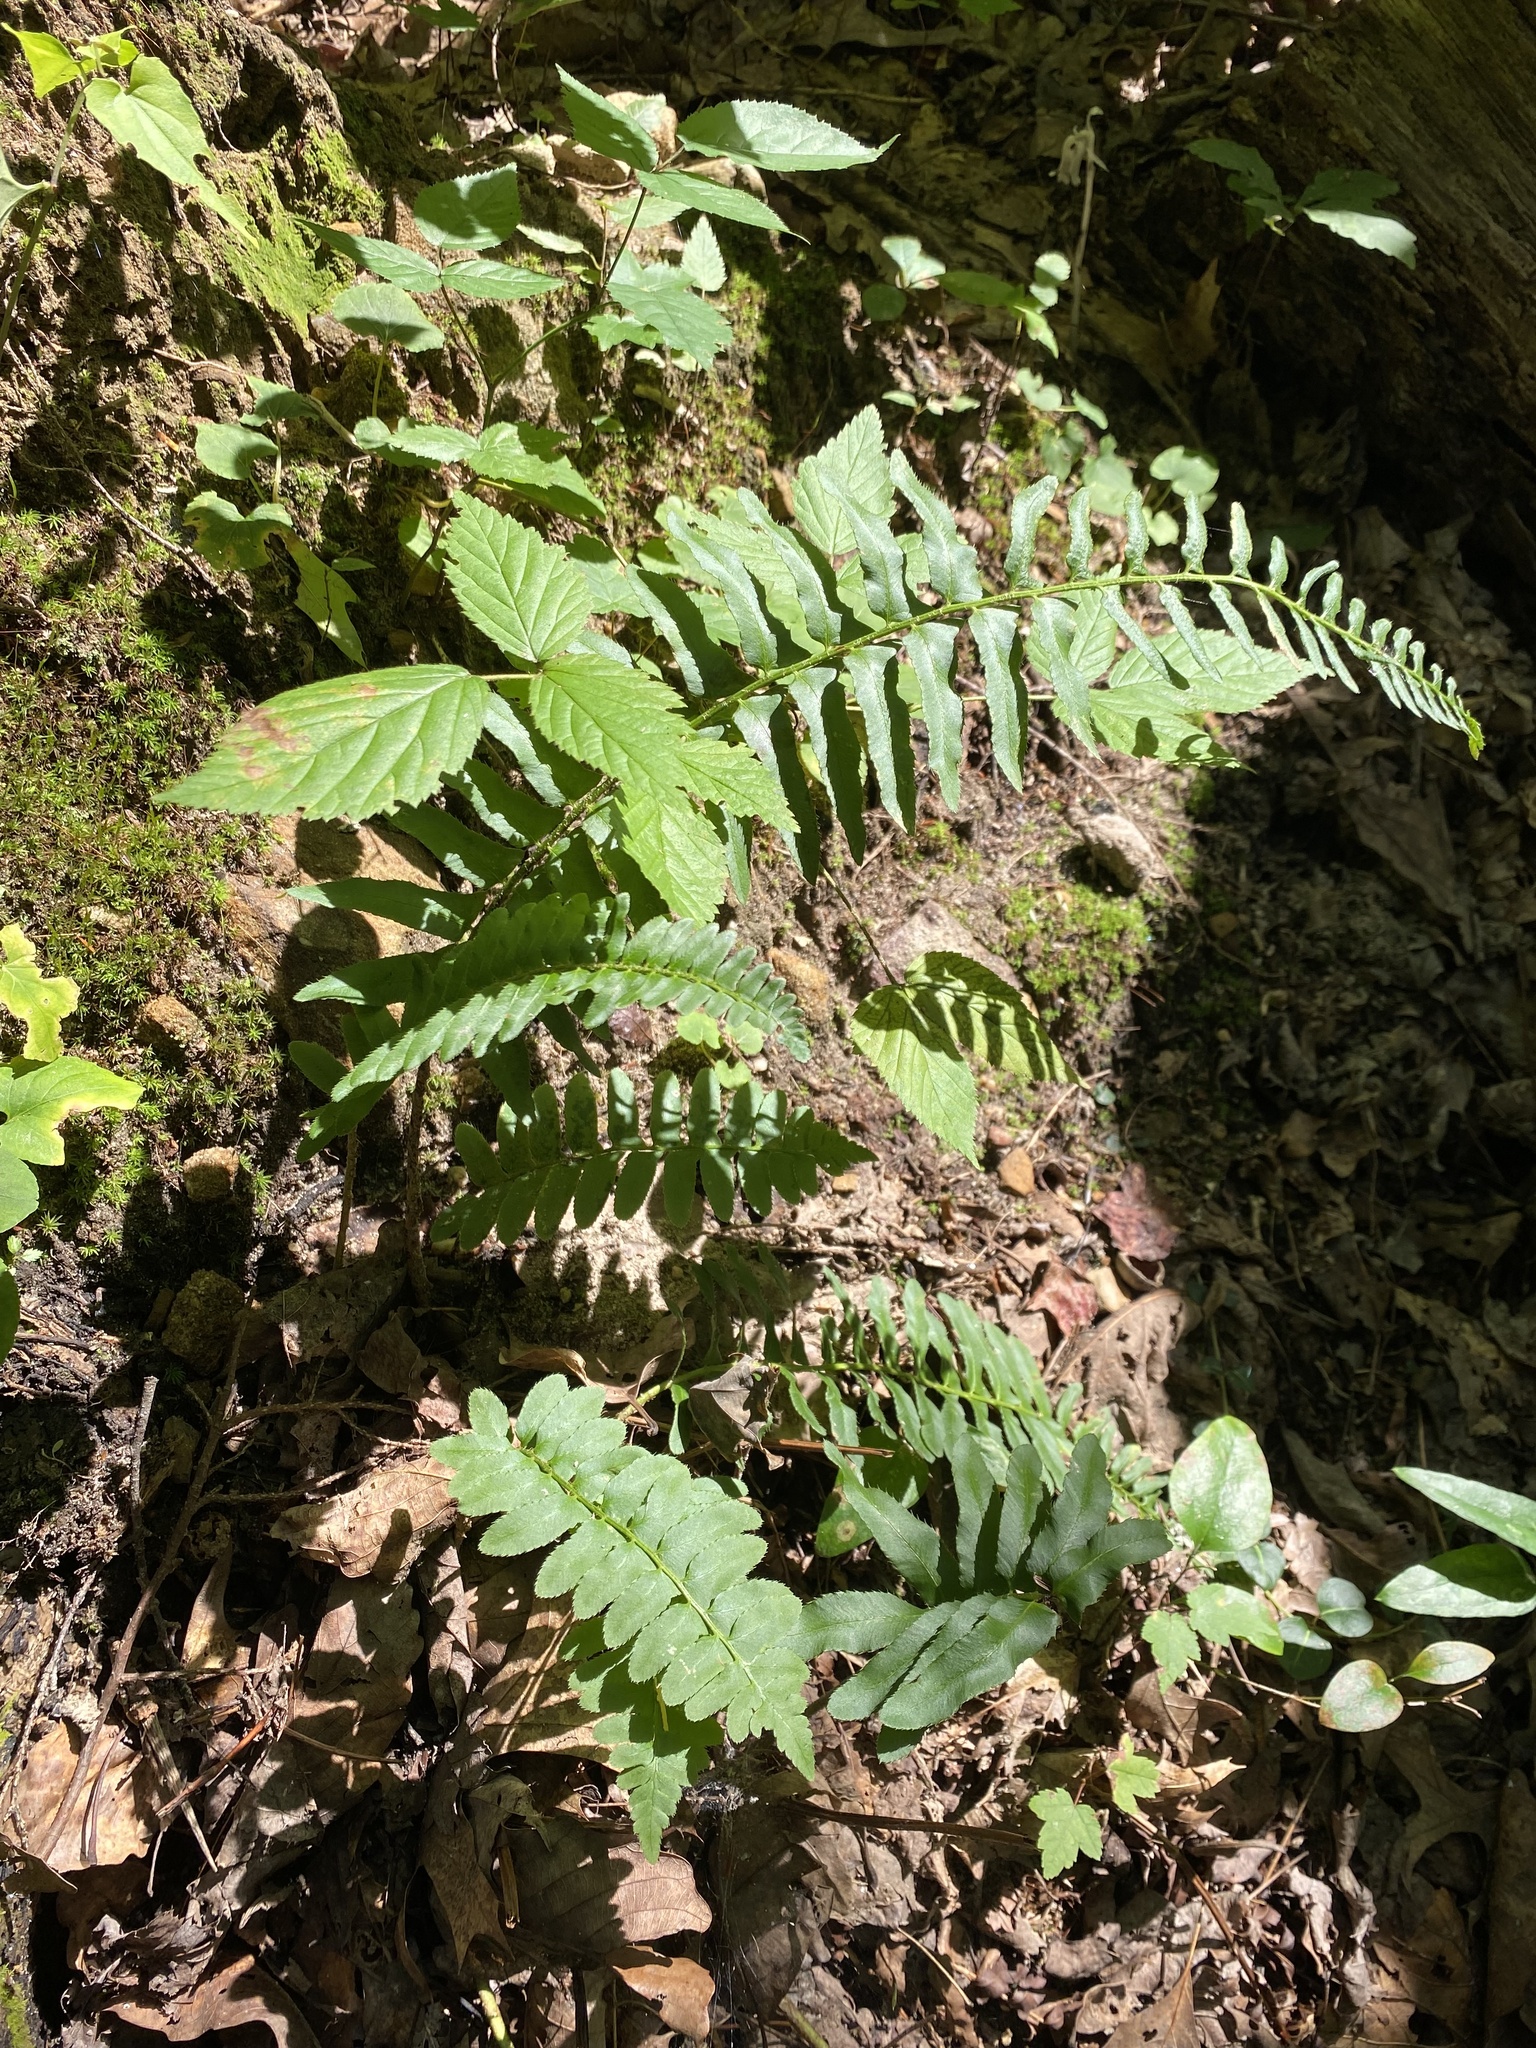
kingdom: Plantae
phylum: Tracheophyta
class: Polypodiopsida
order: Polypodiales
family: Dryopteridaceae
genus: Polystichum
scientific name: Polystichum acrostichoides
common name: Christmas fern
